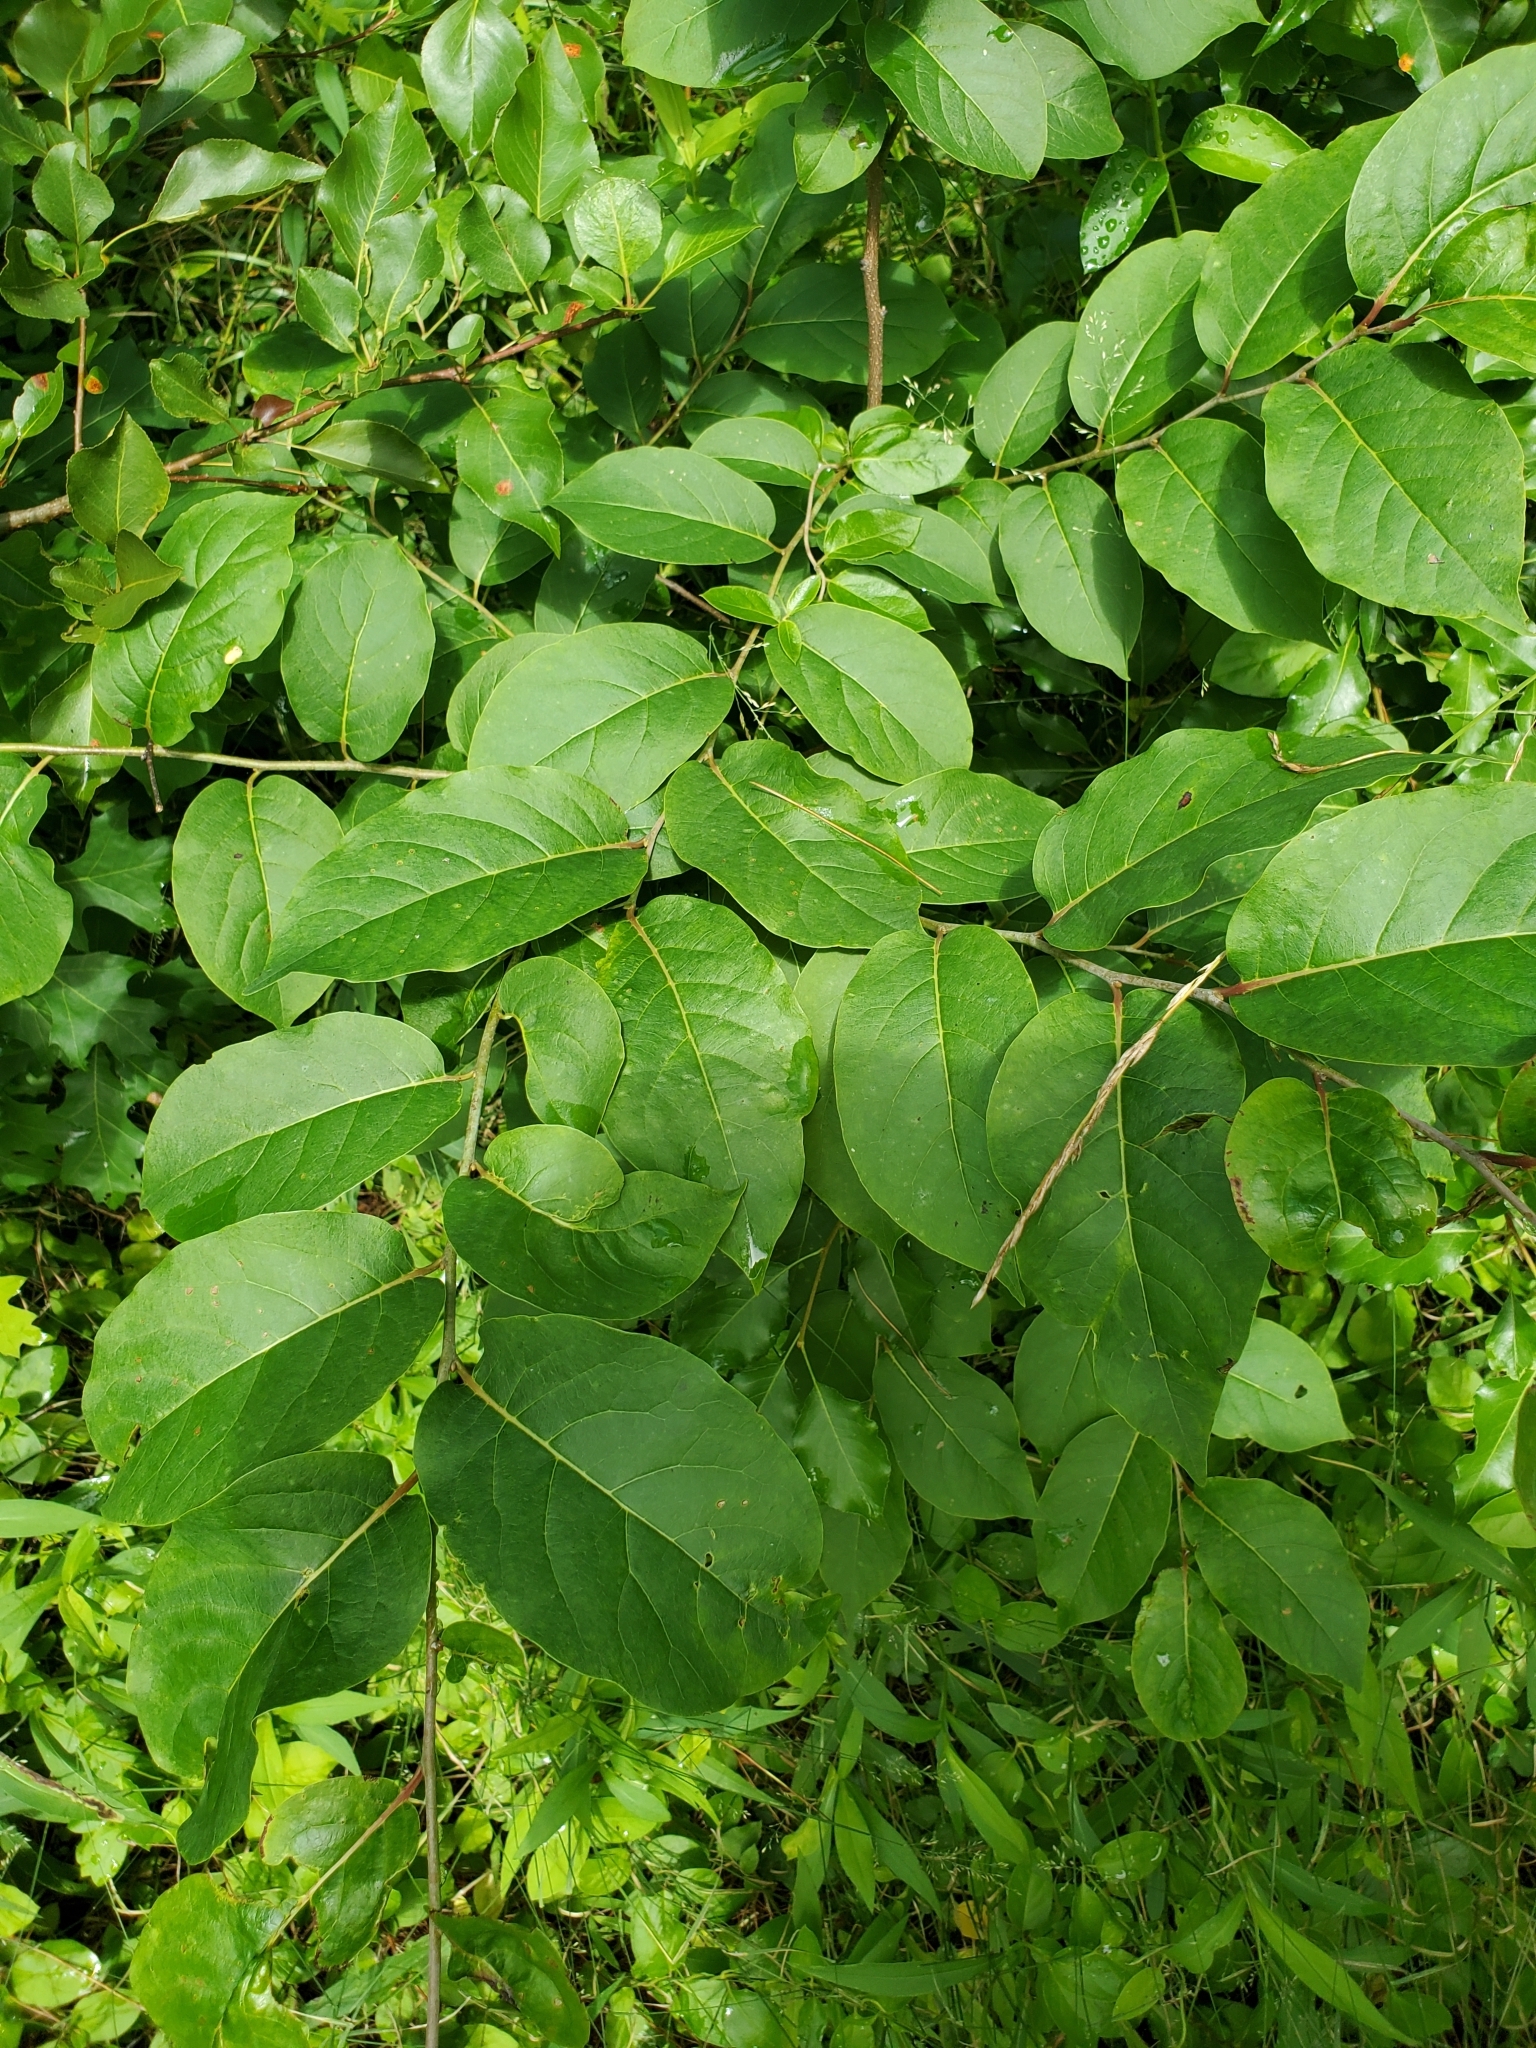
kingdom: Plantae
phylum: Tracheophyta
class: Magnoliopsida
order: Ericales
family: Ebenaceae
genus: Diospyros
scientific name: Diospyros virginiana
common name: Persimmon
